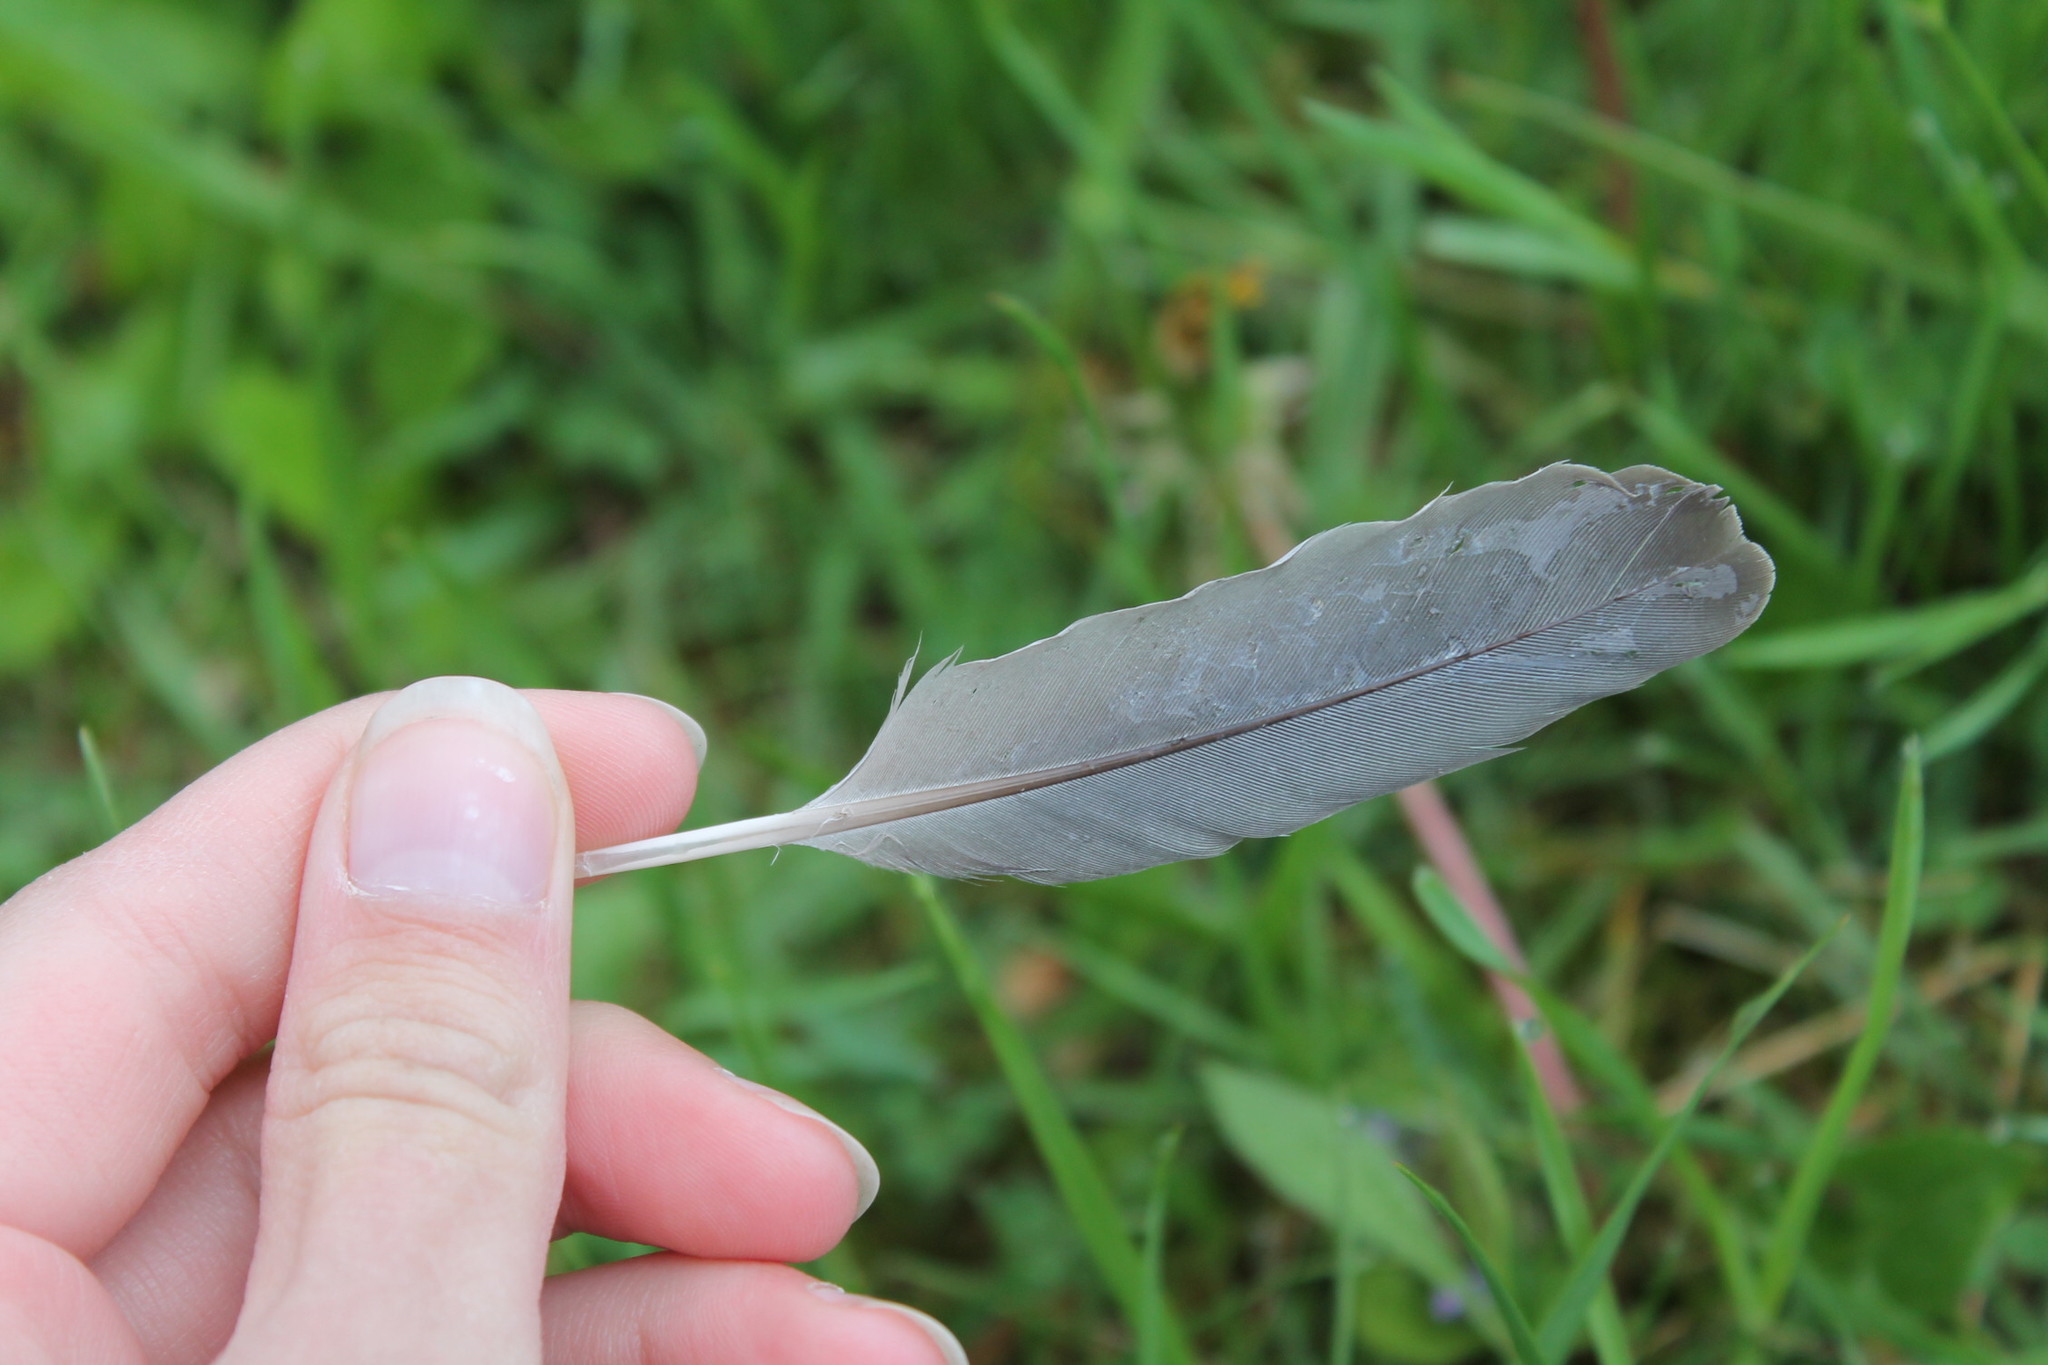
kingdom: Animalia
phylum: Chordata
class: Aves
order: Columbiformes
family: Columbidae
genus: Zenaida
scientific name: Zenaida macroura
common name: Mourning dove
